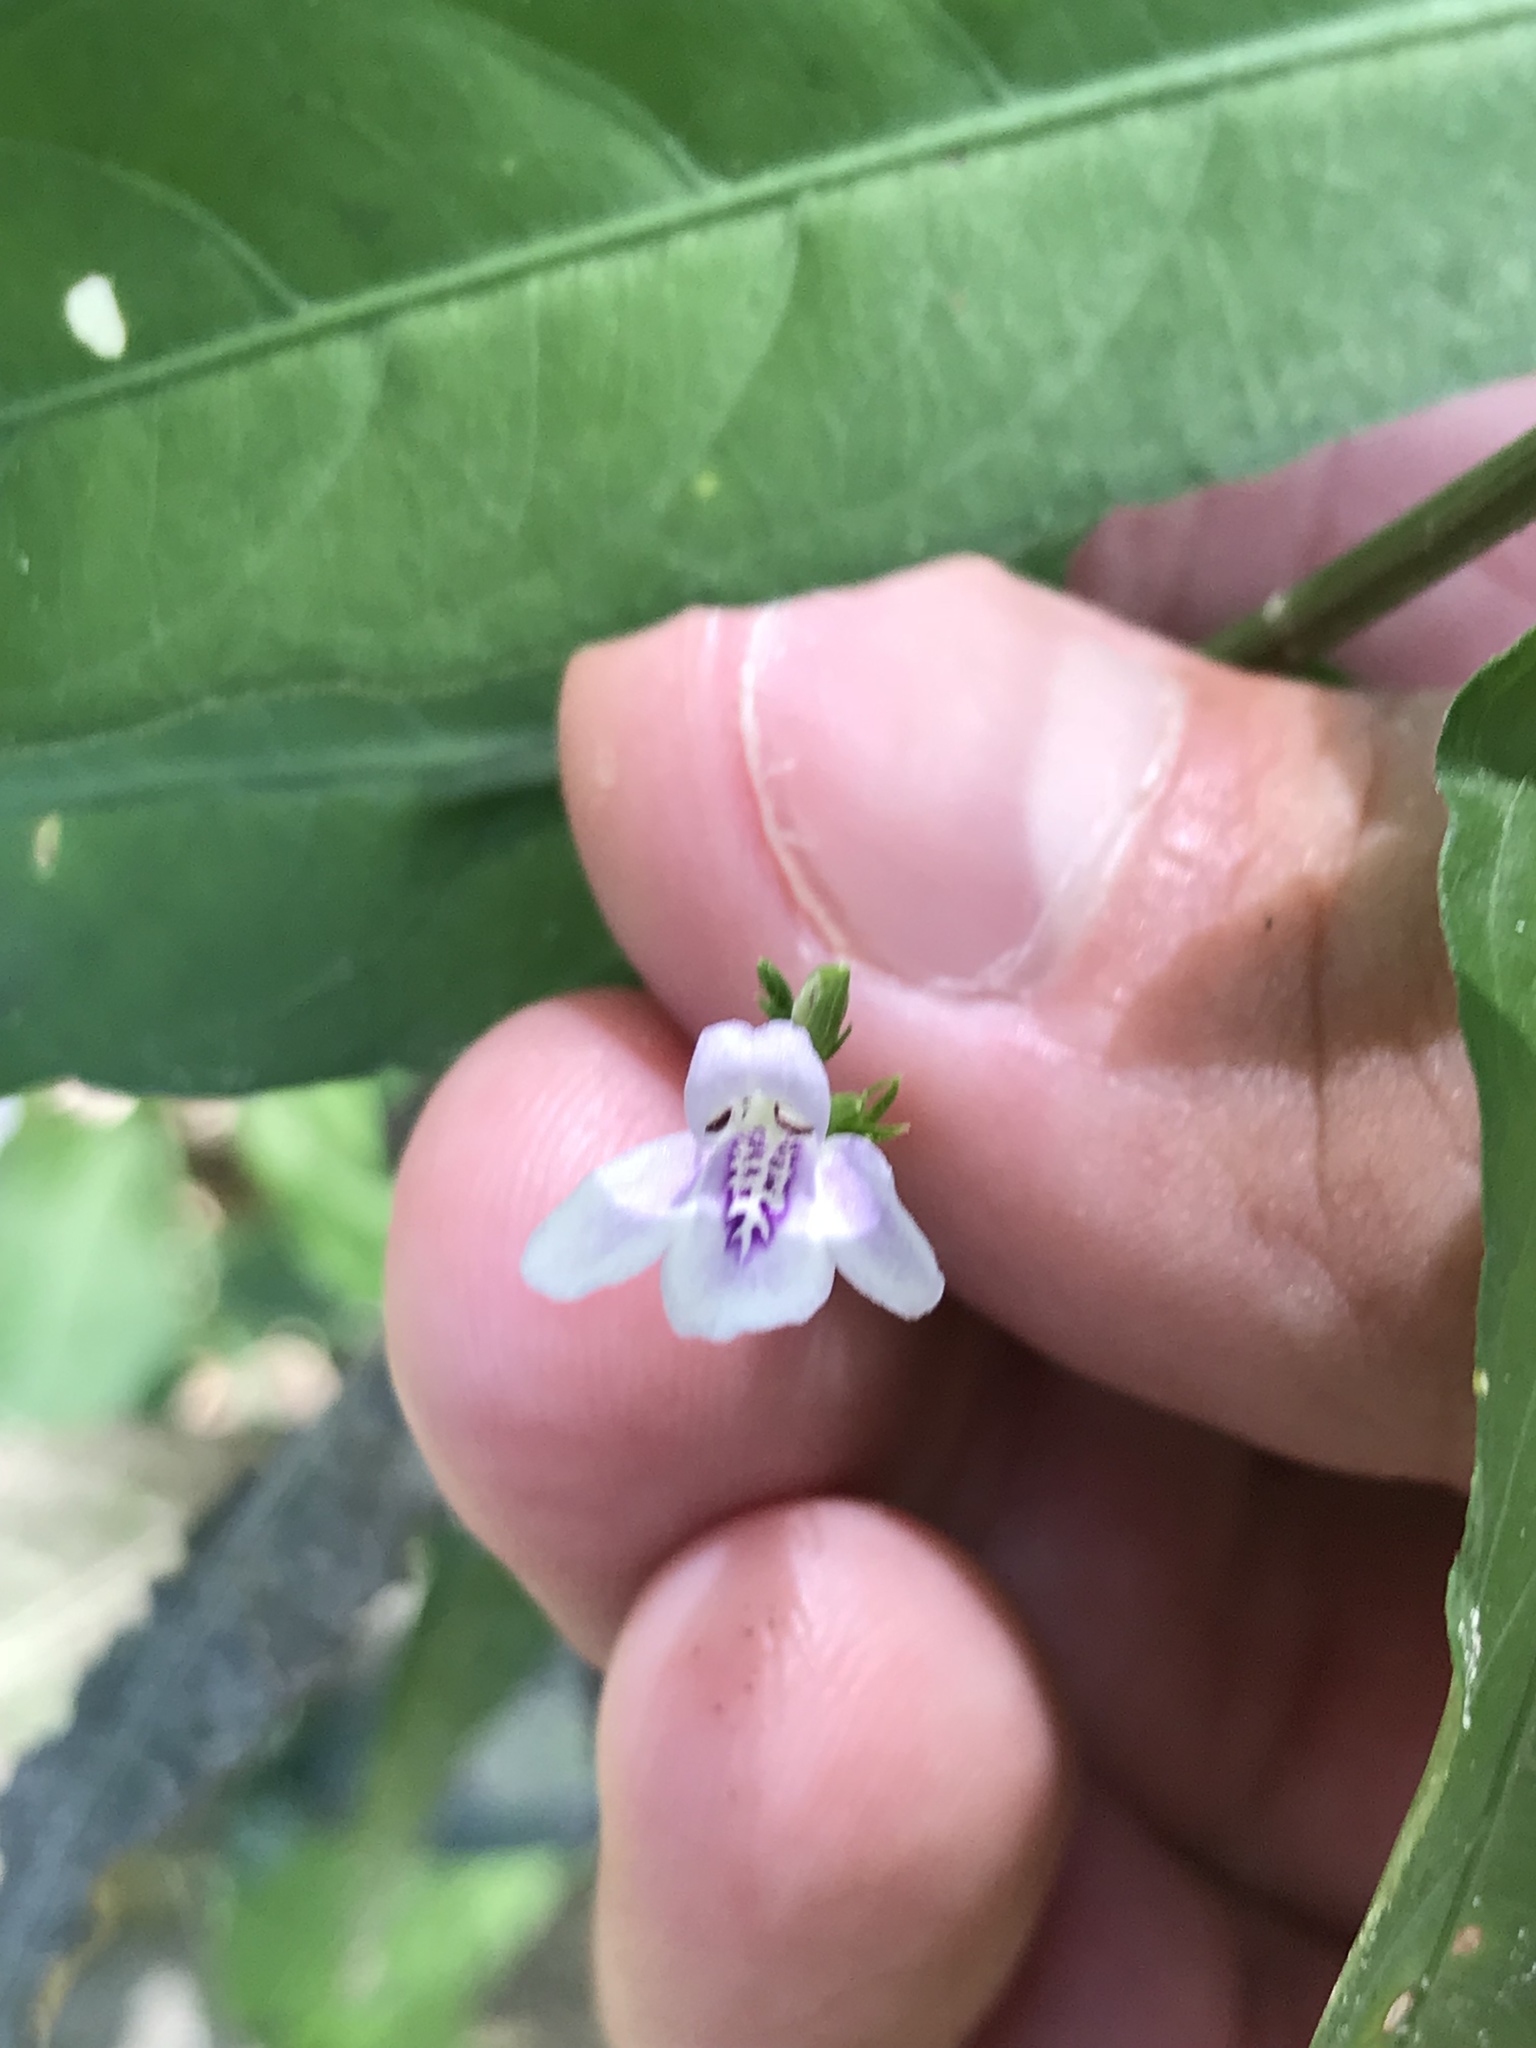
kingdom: Plantae
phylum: Tracheophyta
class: Magnoliopsida
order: Lamiales
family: Acanthaceae
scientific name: Acanthaceae
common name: Acanthaceae
